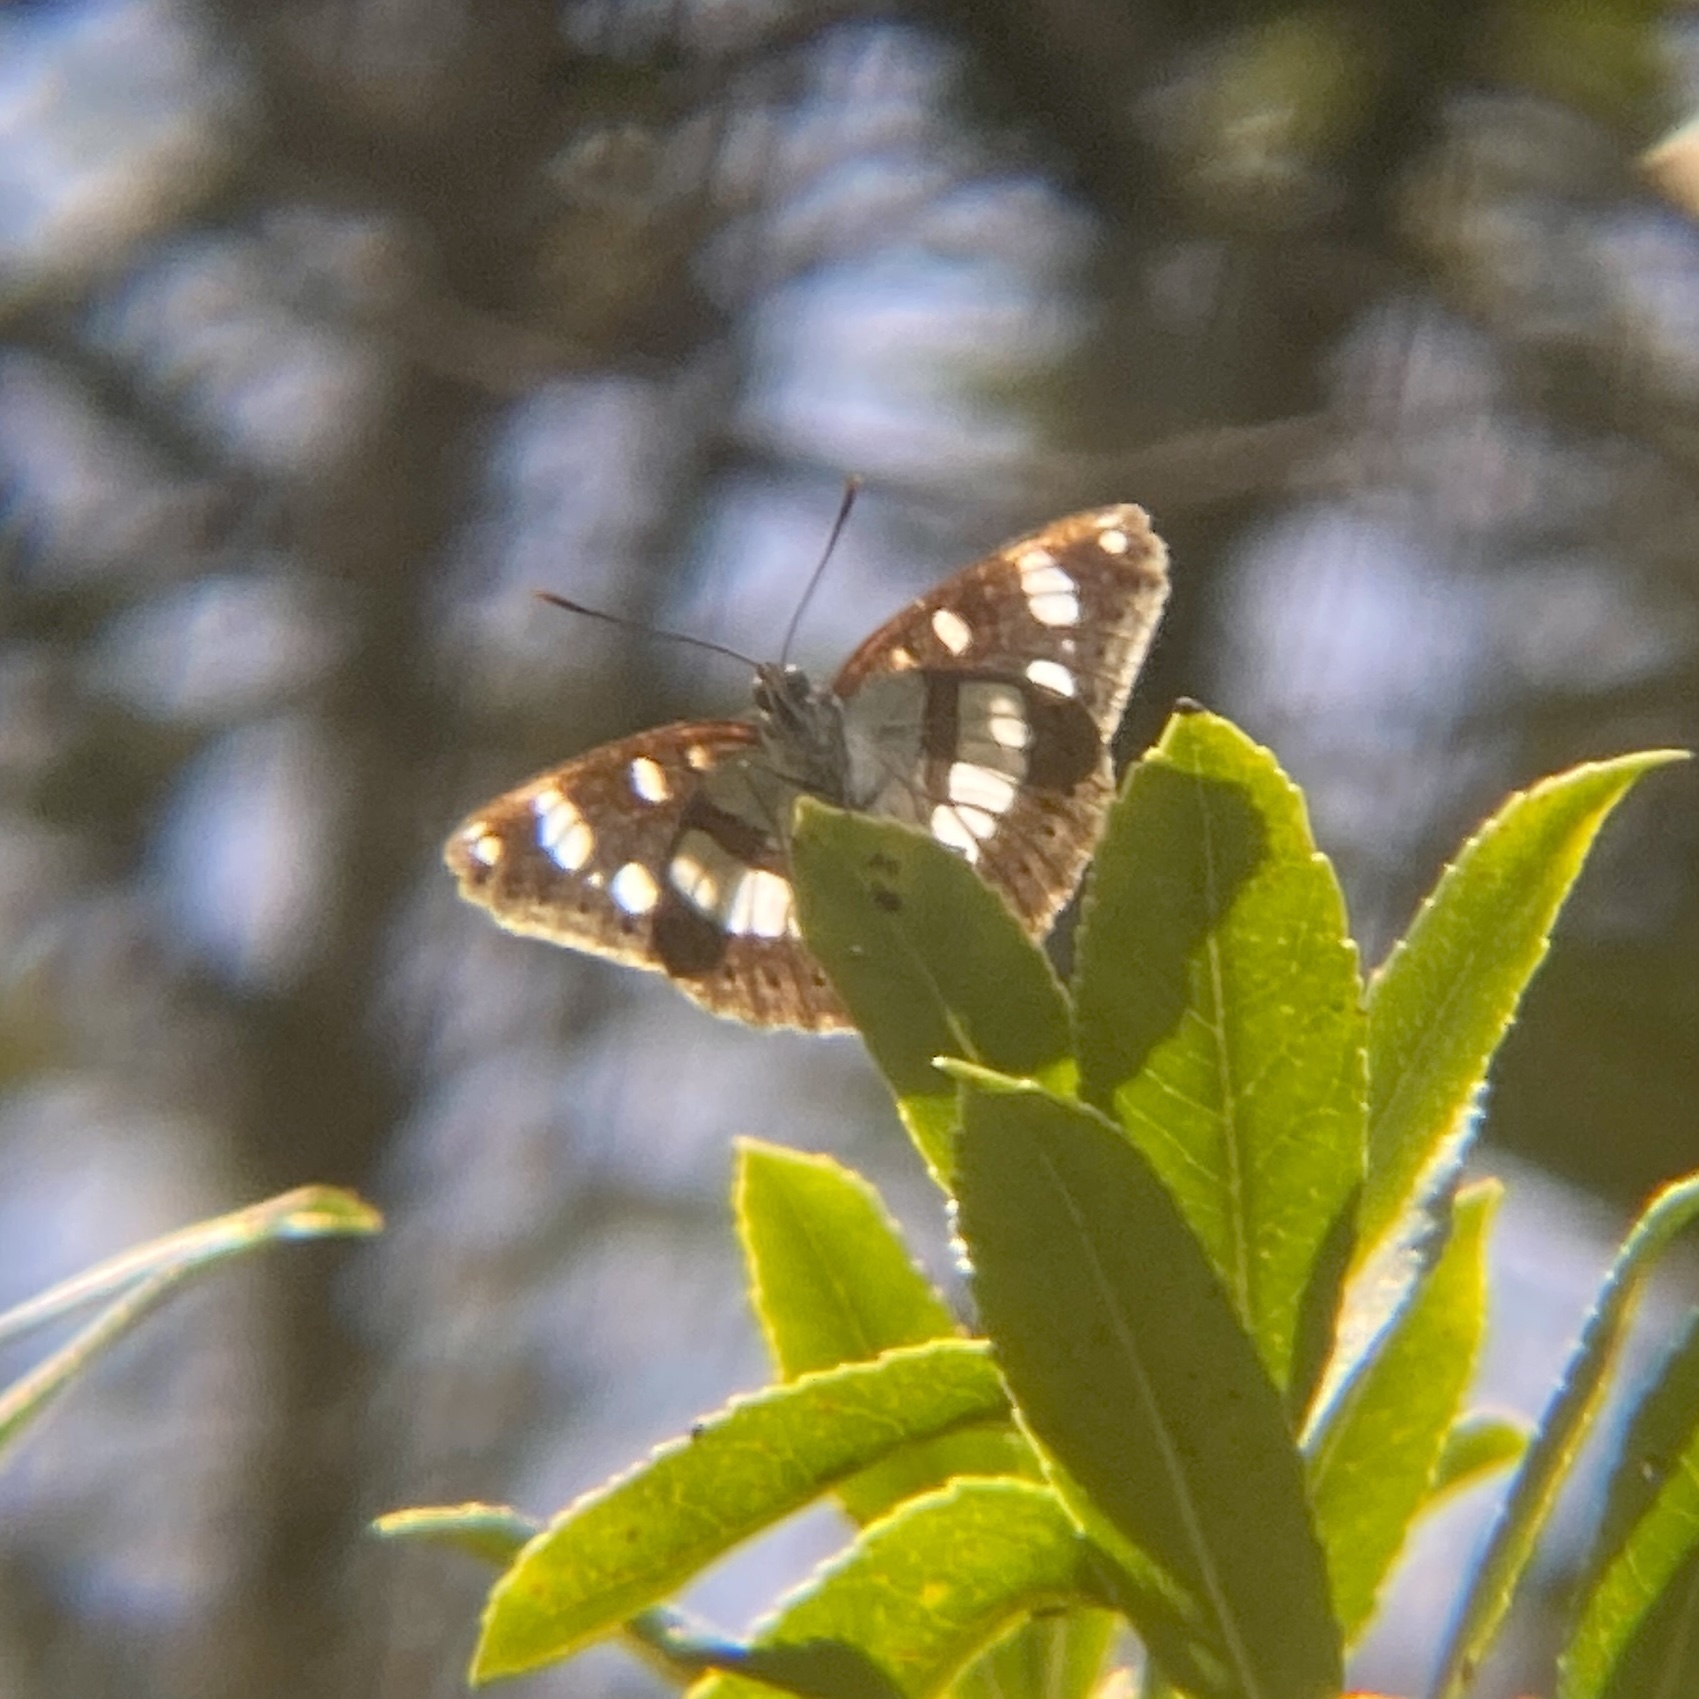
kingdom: Animalia
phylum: Arthropoda
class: Insecta
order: Lepidoptera
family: Nymphalidae
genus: Limenitis
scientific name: Limenitis reducta
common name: Southern white admiral
